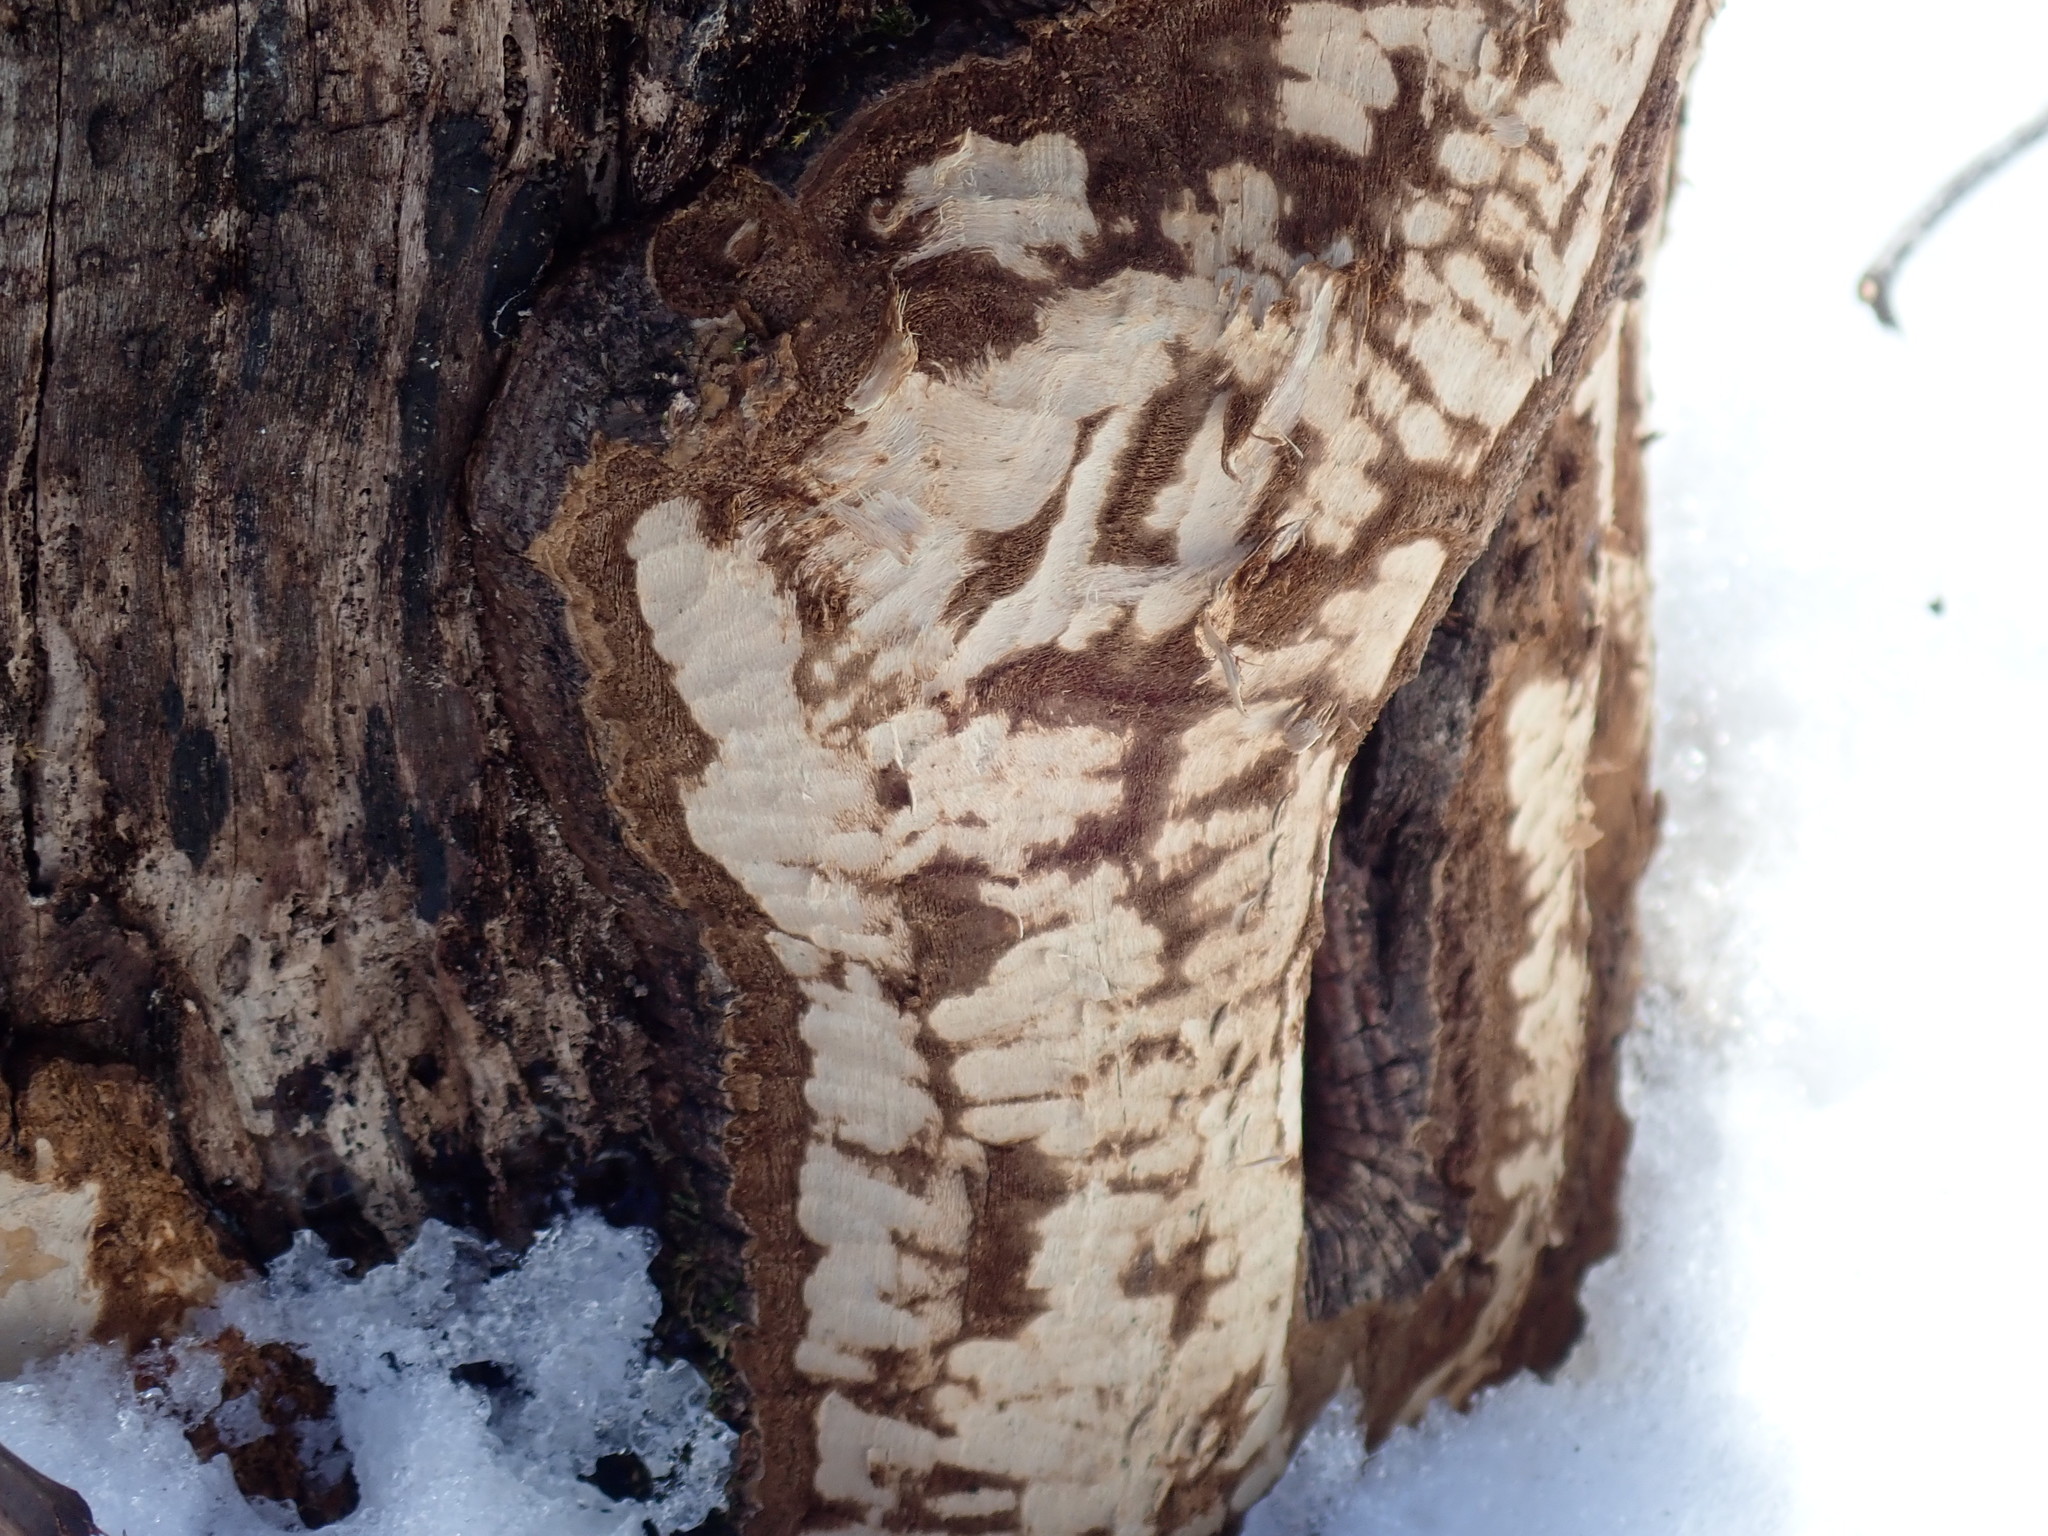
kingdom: Animalia
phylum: Chordata
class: Mammalia
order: Rodentia
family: Castoridae
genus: Castor
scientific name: Castor canadensis
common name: American beaver
